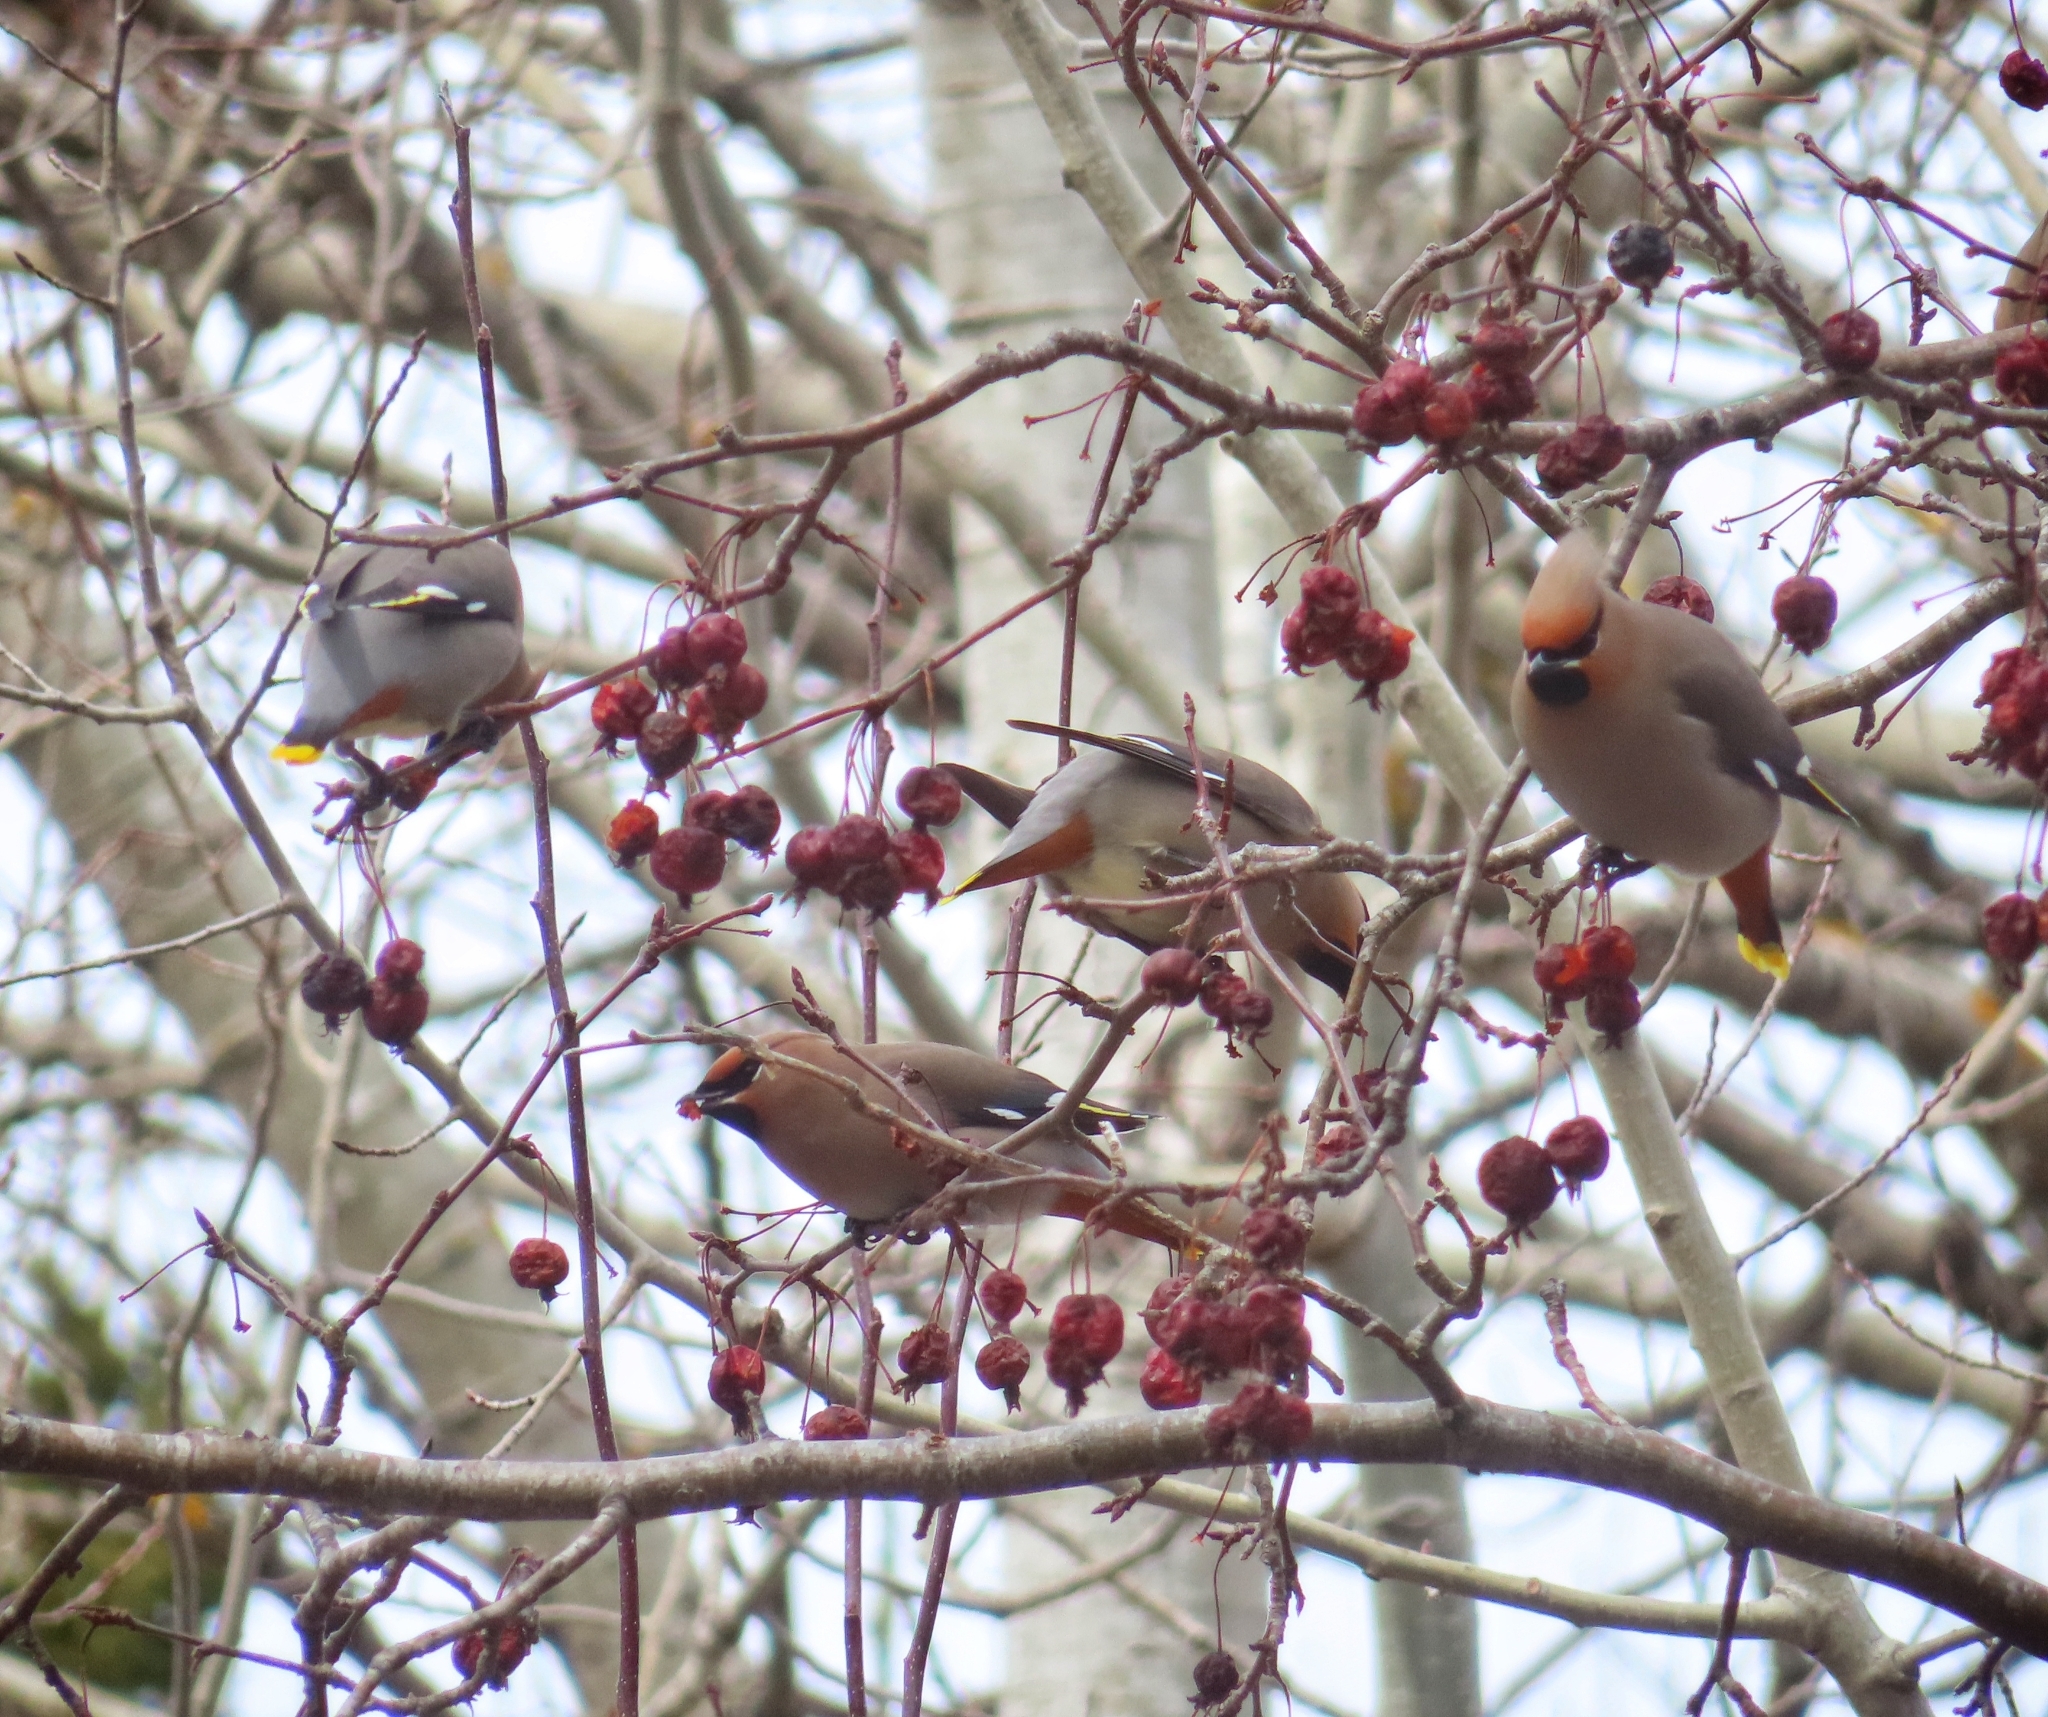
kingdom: Animalia
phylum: Chordata
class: Aves
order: Passeriformes
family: Bombycillidae
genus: Bombycilla
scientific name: Bombycilla garrulus
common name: Bohemian waxwing
